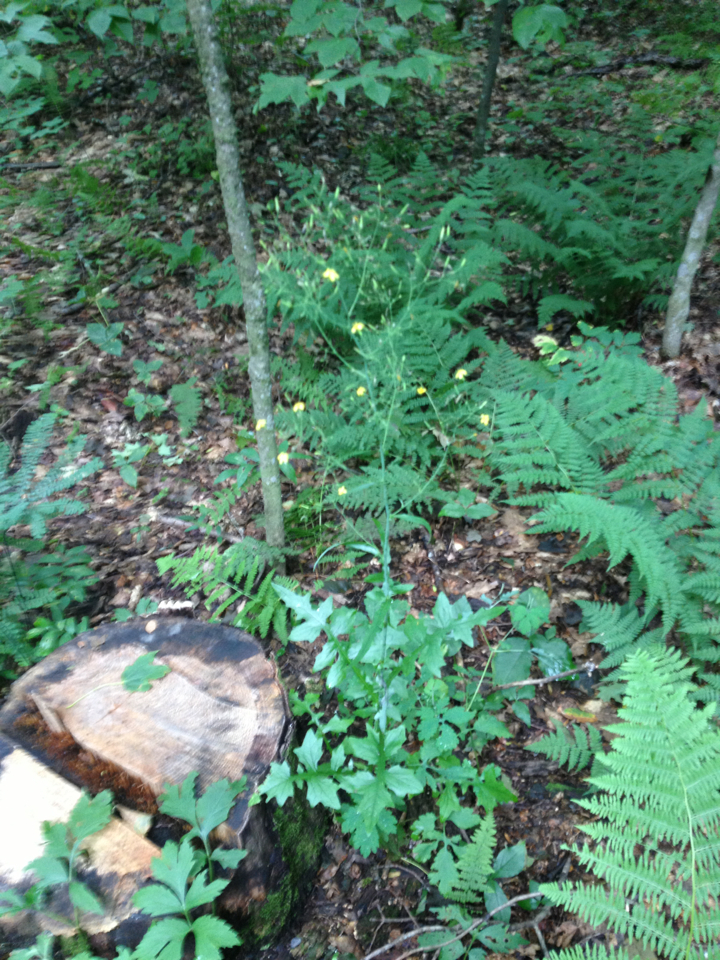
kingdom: Plantae
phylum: Tracheophyta
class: Magnoliopsida
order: Asterales
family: Asteraceae
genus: Mycelis
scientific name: Mycelis muralis
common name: Wall lettuce
